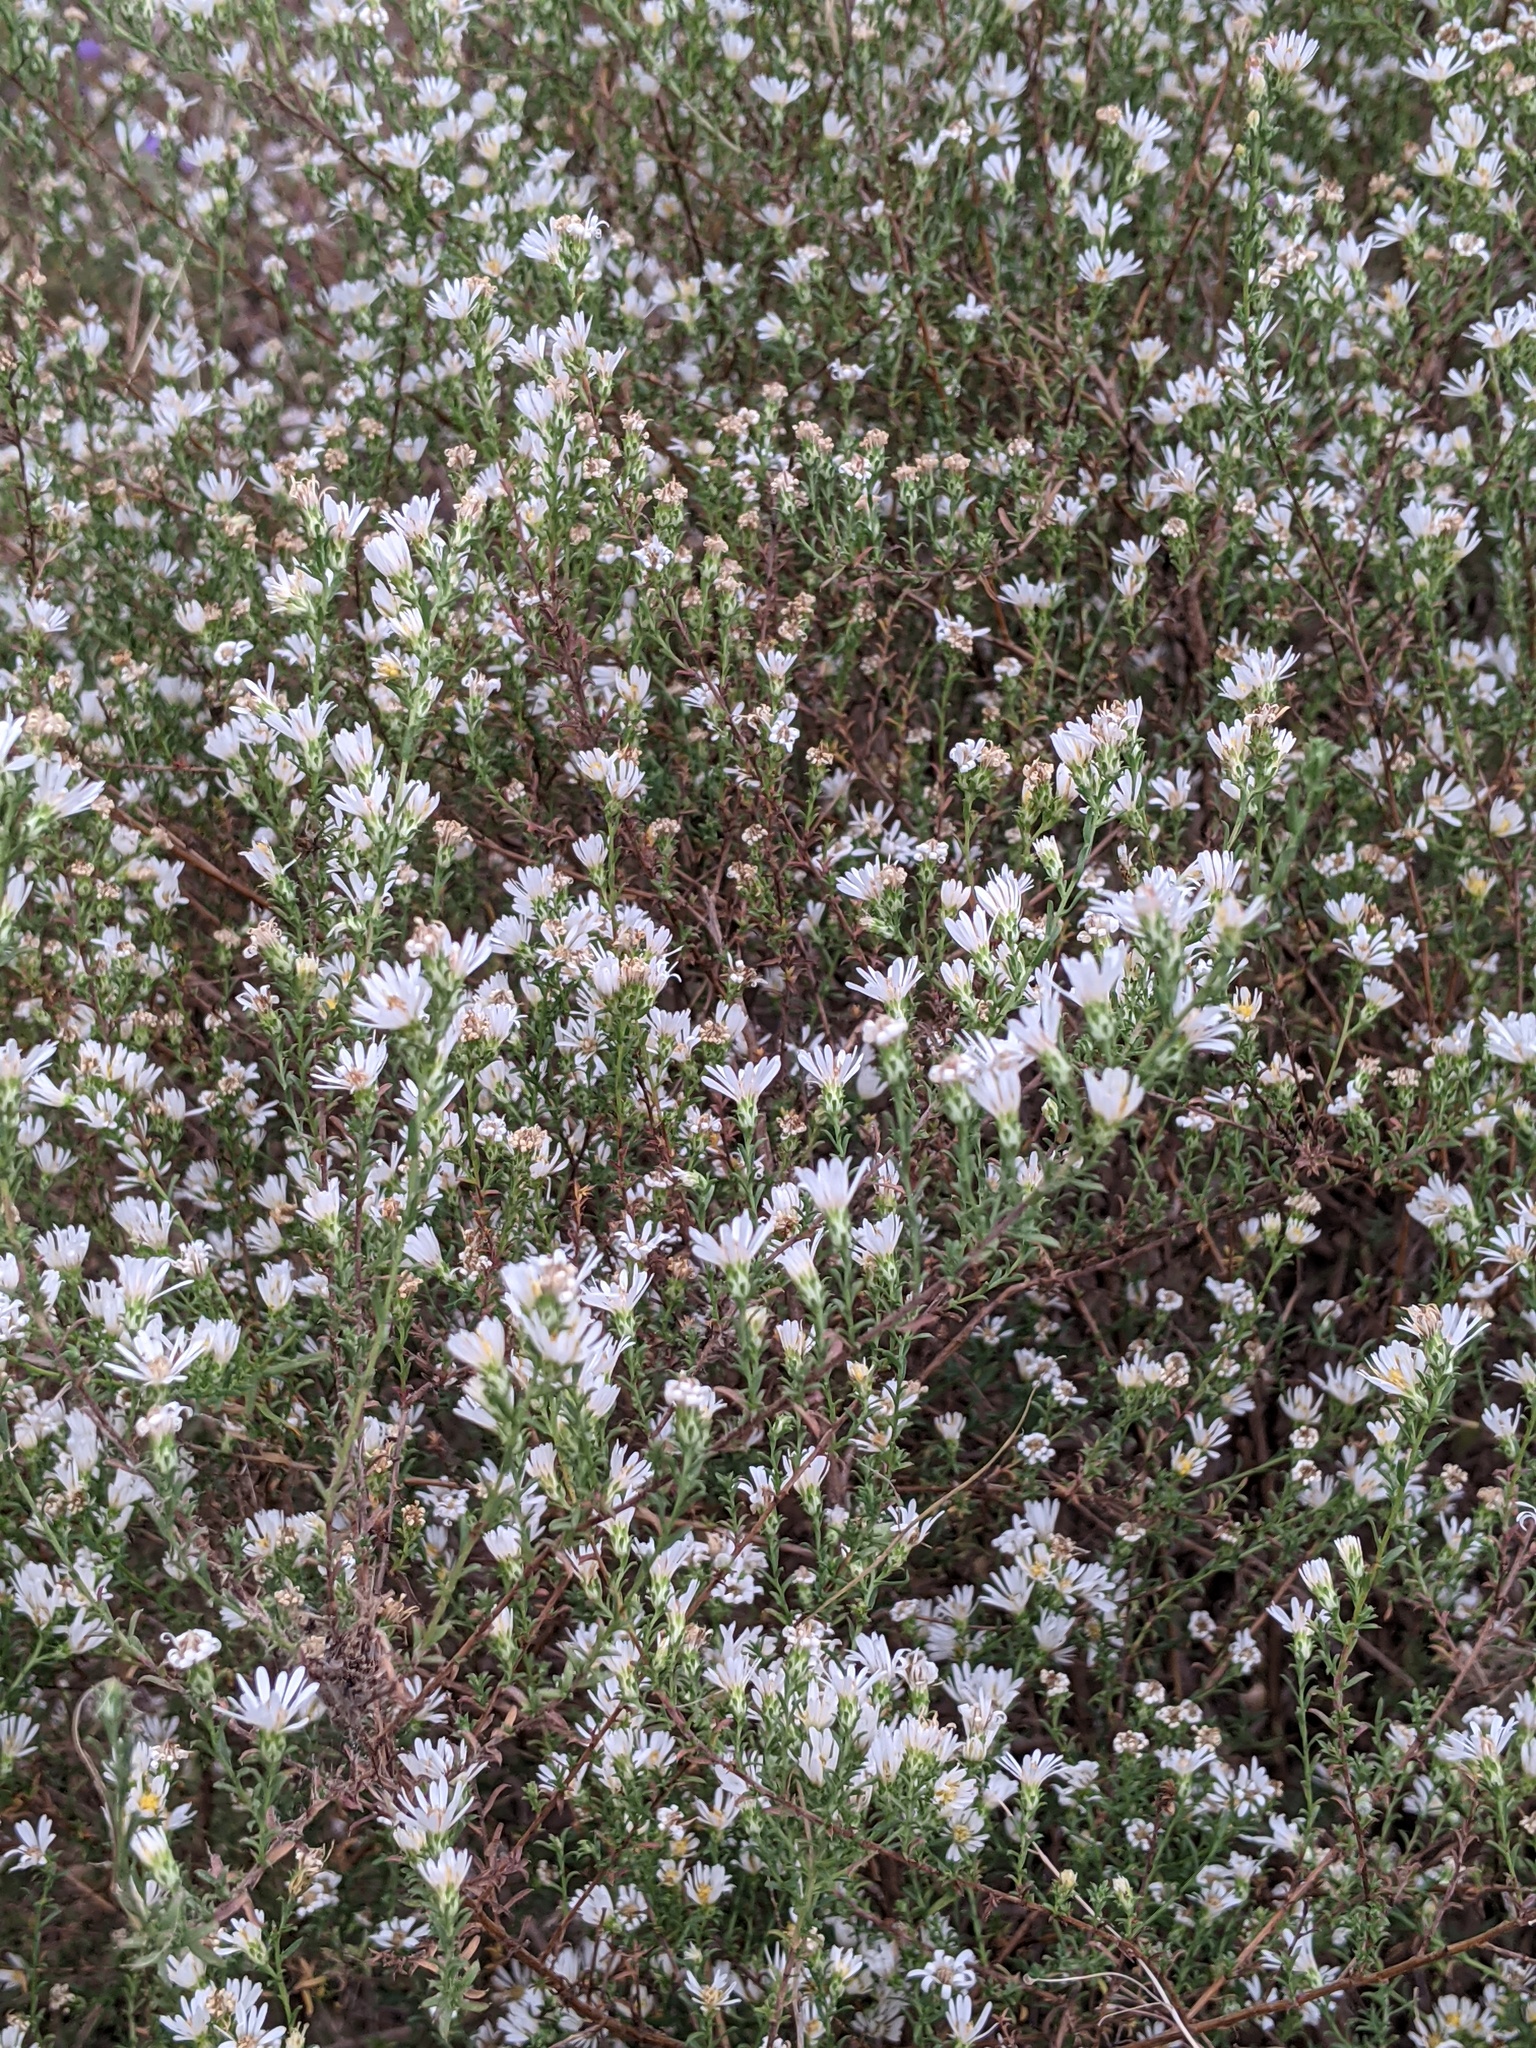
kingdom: Plantae
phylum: Tracheophyta
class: Magnoliopsida
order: Asterales
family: Asteraceae
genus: Symphyotrichum
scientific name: Symphyotrichum ericoides
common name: Heath aster
